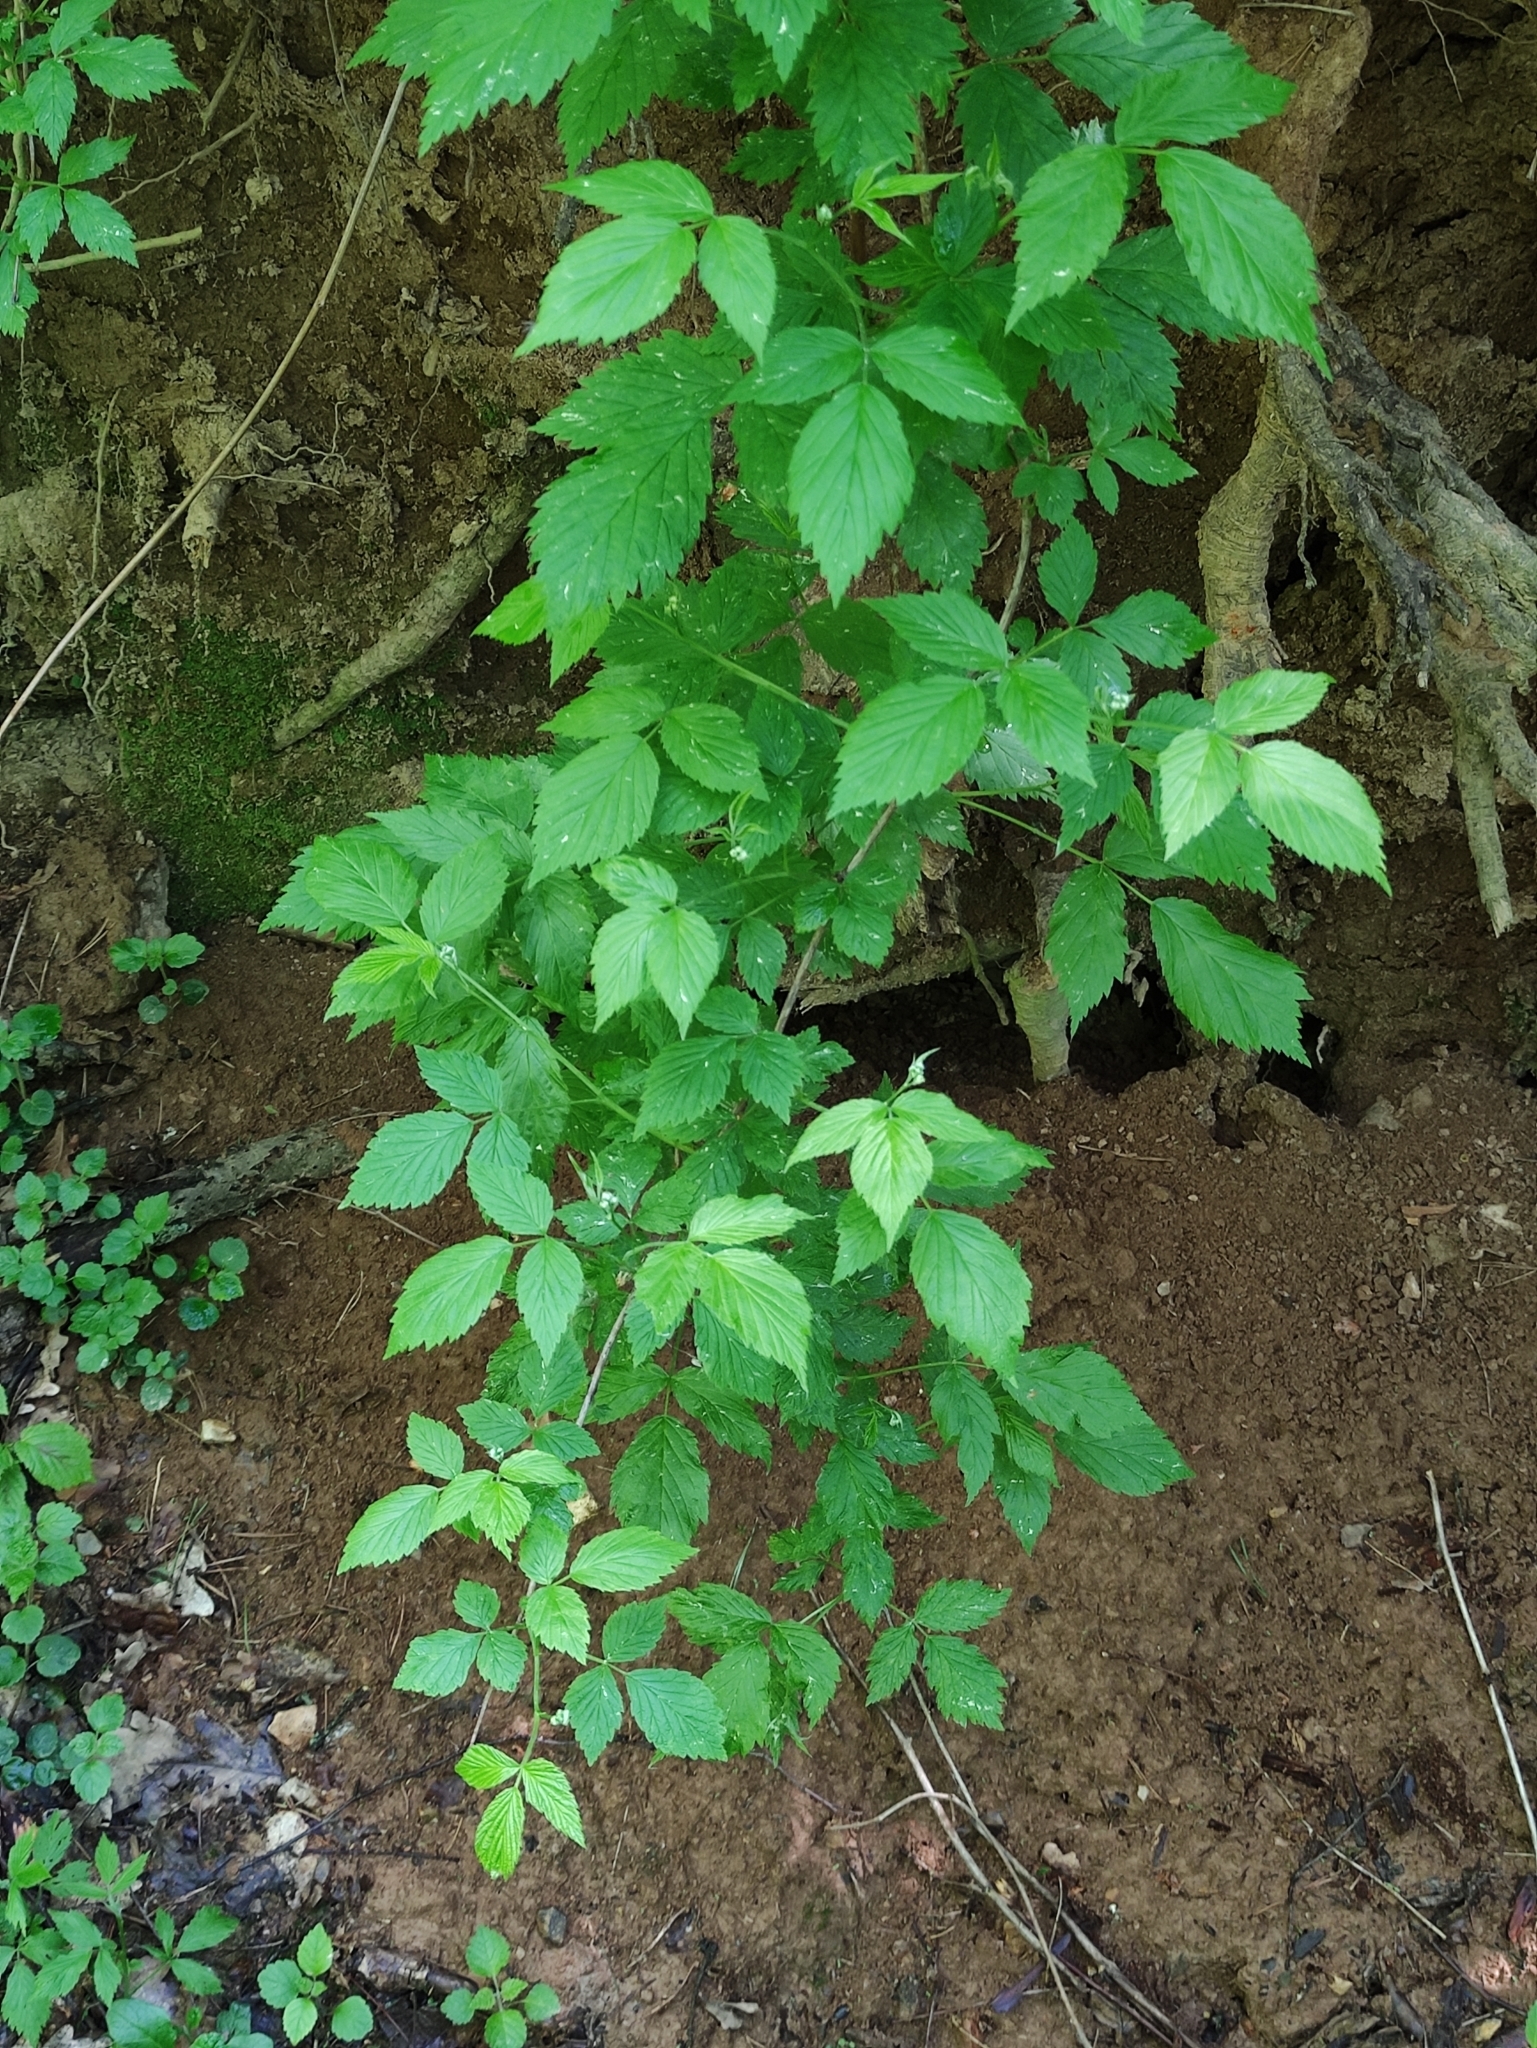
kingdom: Plantae
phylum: Tracheophyta
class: Magnoliopsida
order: Rosales
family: Rosaceae
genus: Rubus
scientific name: Rubus idaeus
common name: Raspberry
